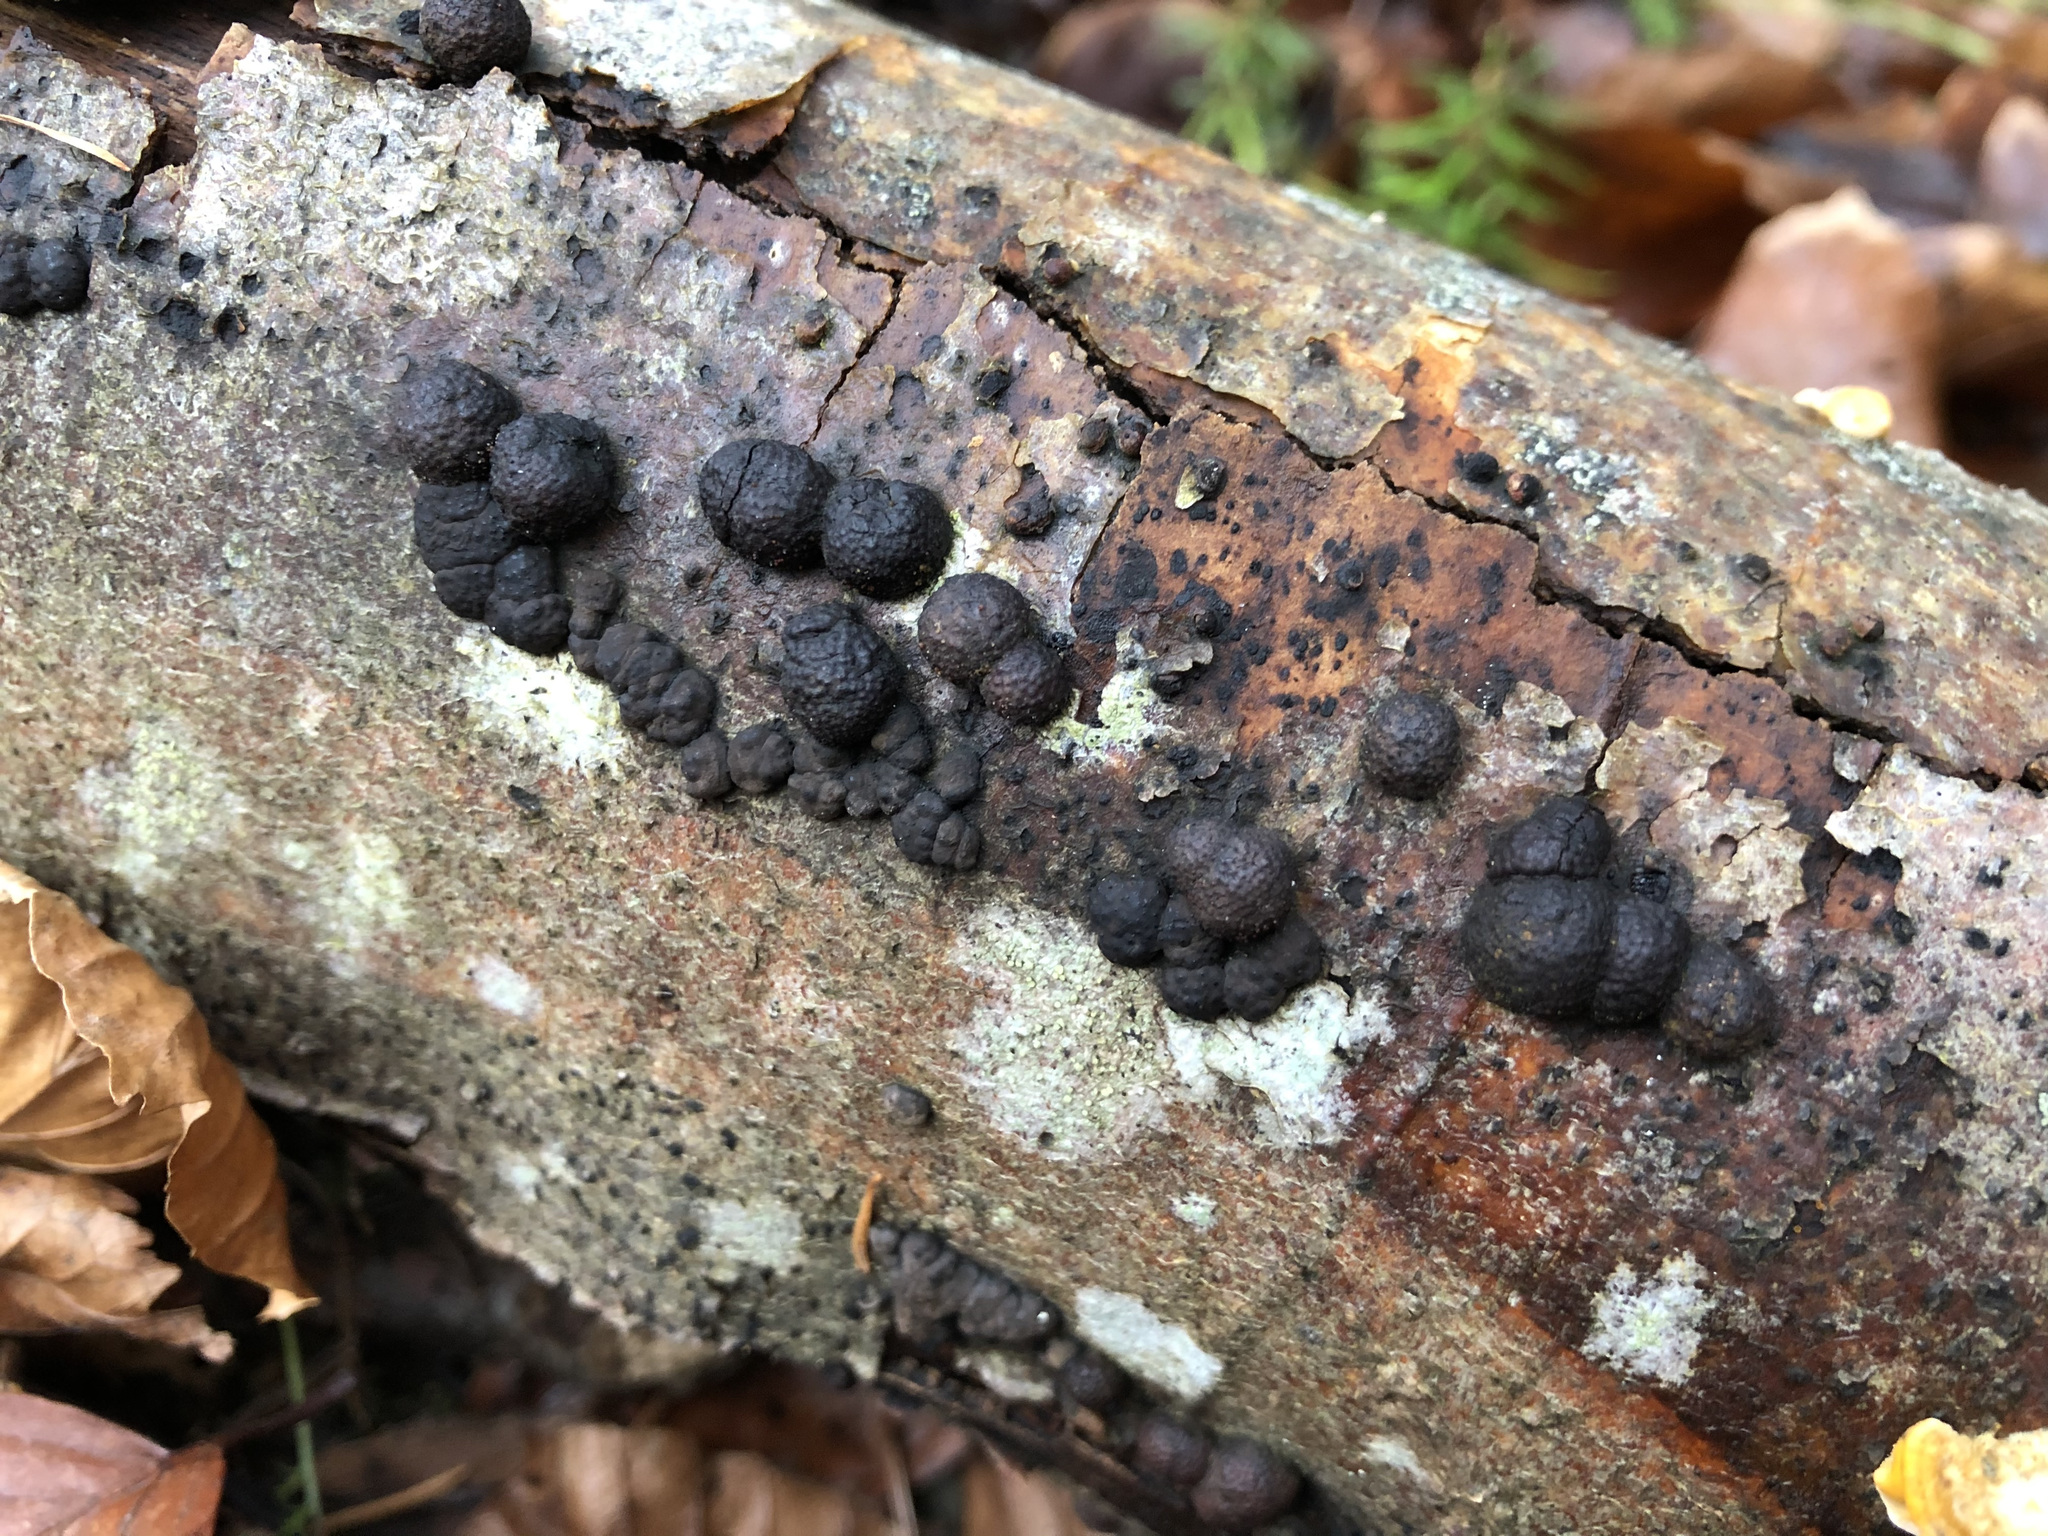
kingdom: Fungi
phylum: Ascomycota
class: Sordariomycetes
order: Xylariales
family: Hypoxylaceae
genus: Hypoxylon
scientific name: Hypoxylon fragiforme
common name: Beech woodwart
